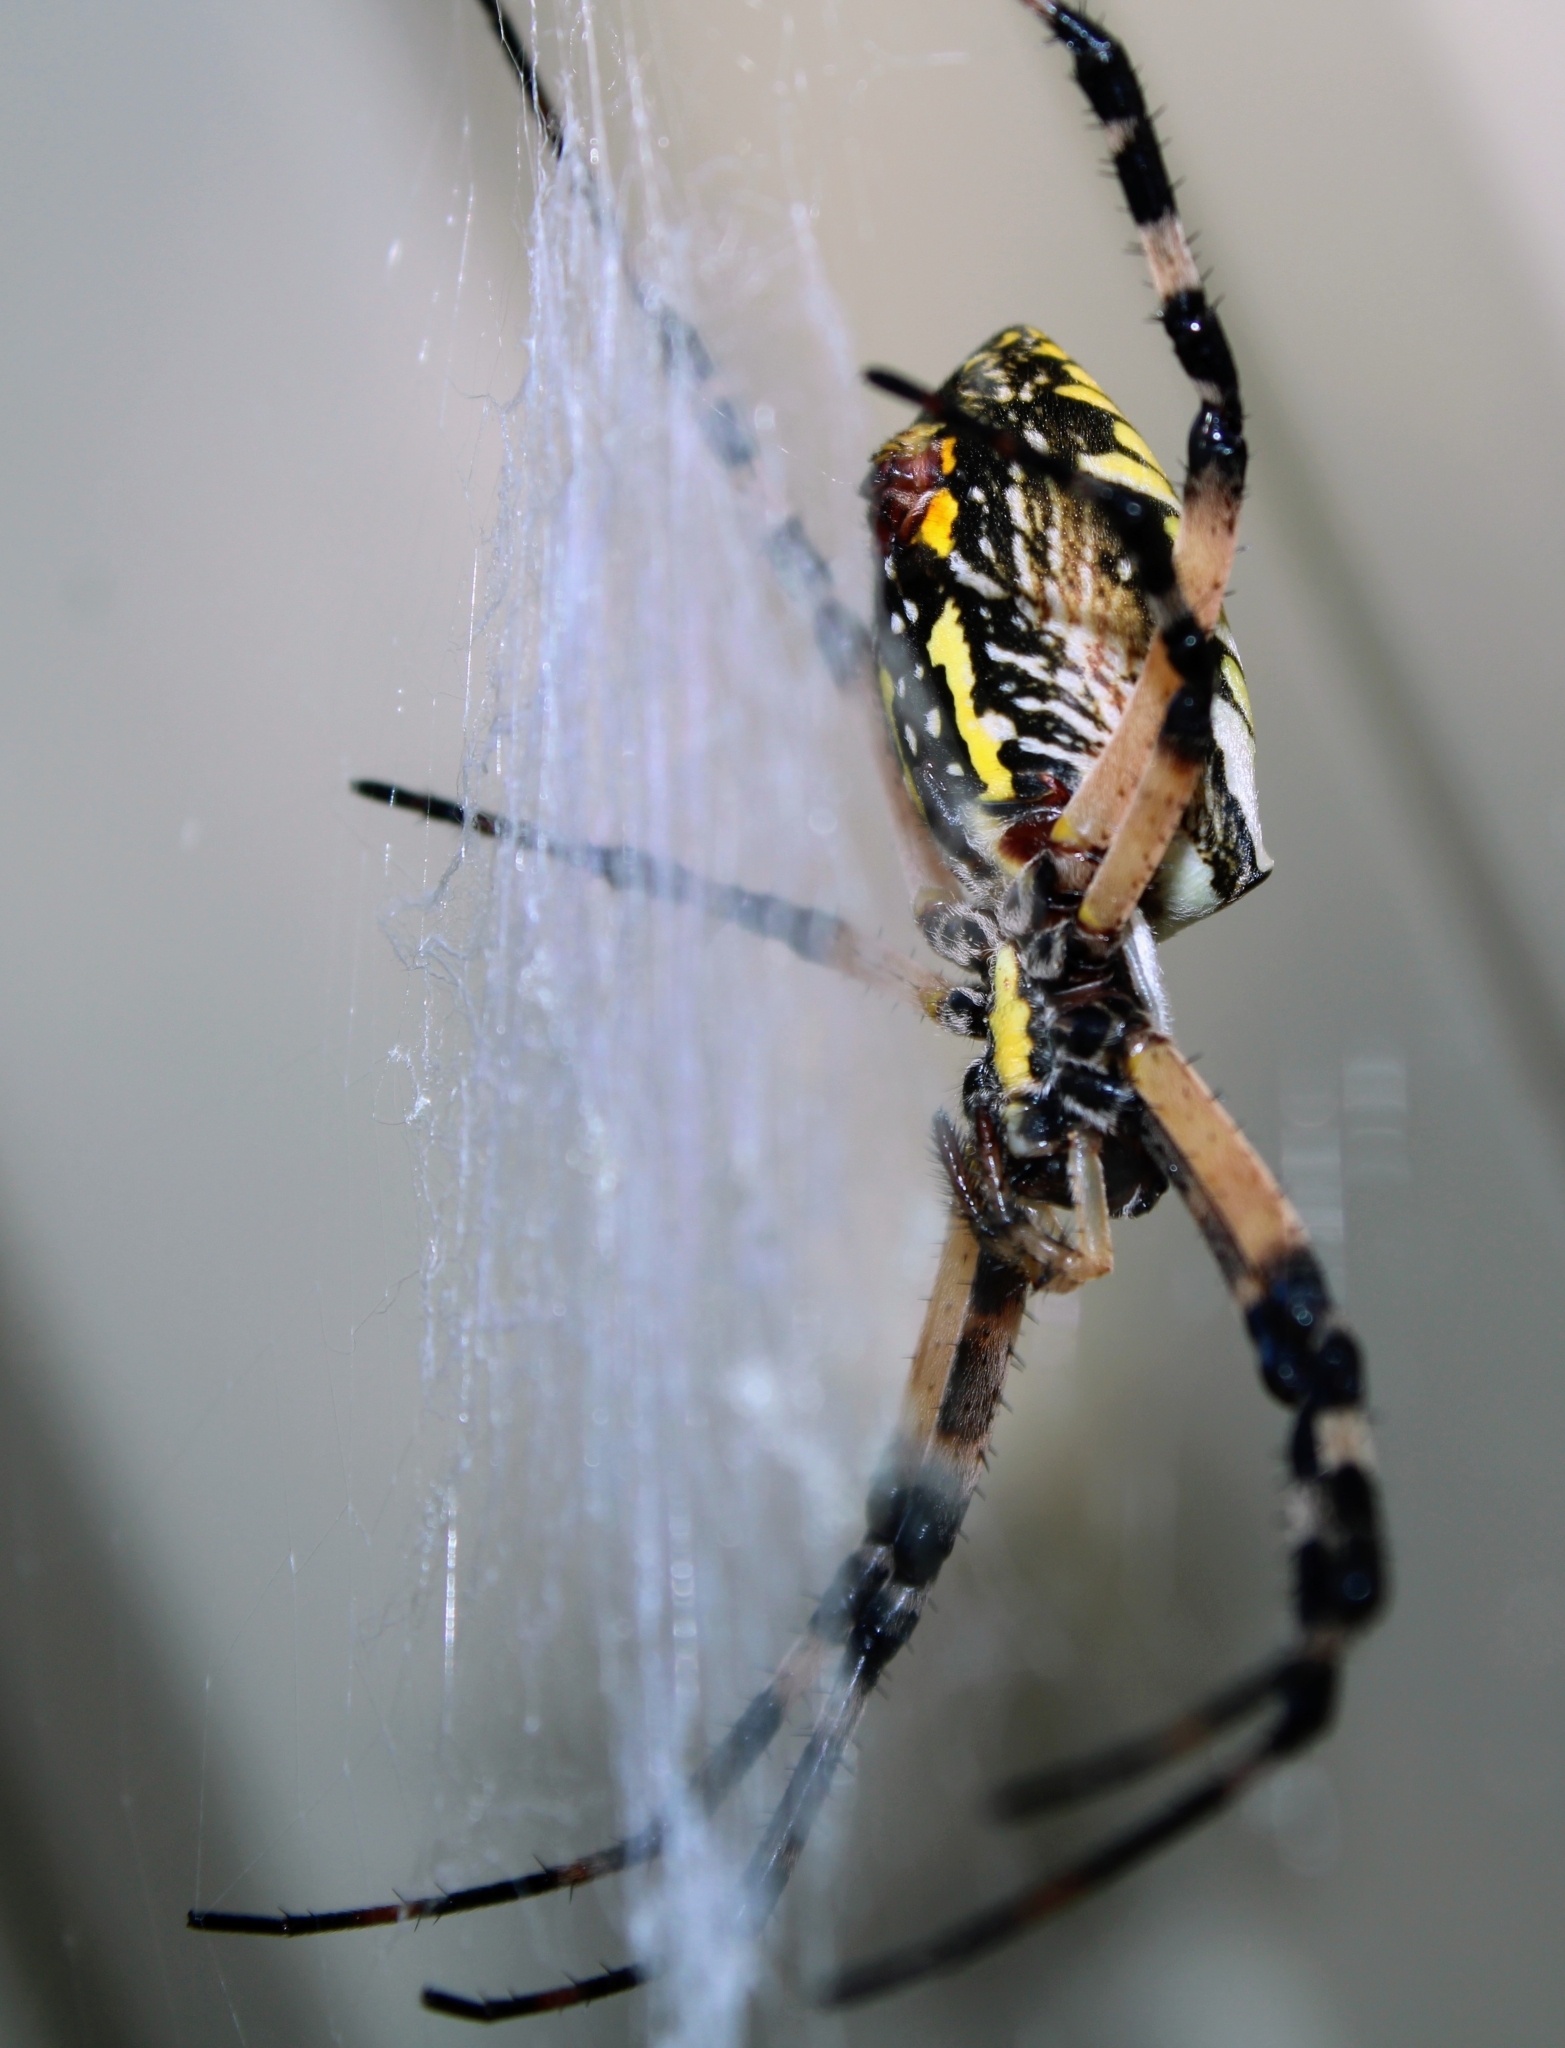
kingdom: Animalia
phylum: Arthropoda
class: Arachnida
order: Araneae
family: Araneidae
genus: Argiope
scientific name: Argiope aurantia
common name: Orb weavers
